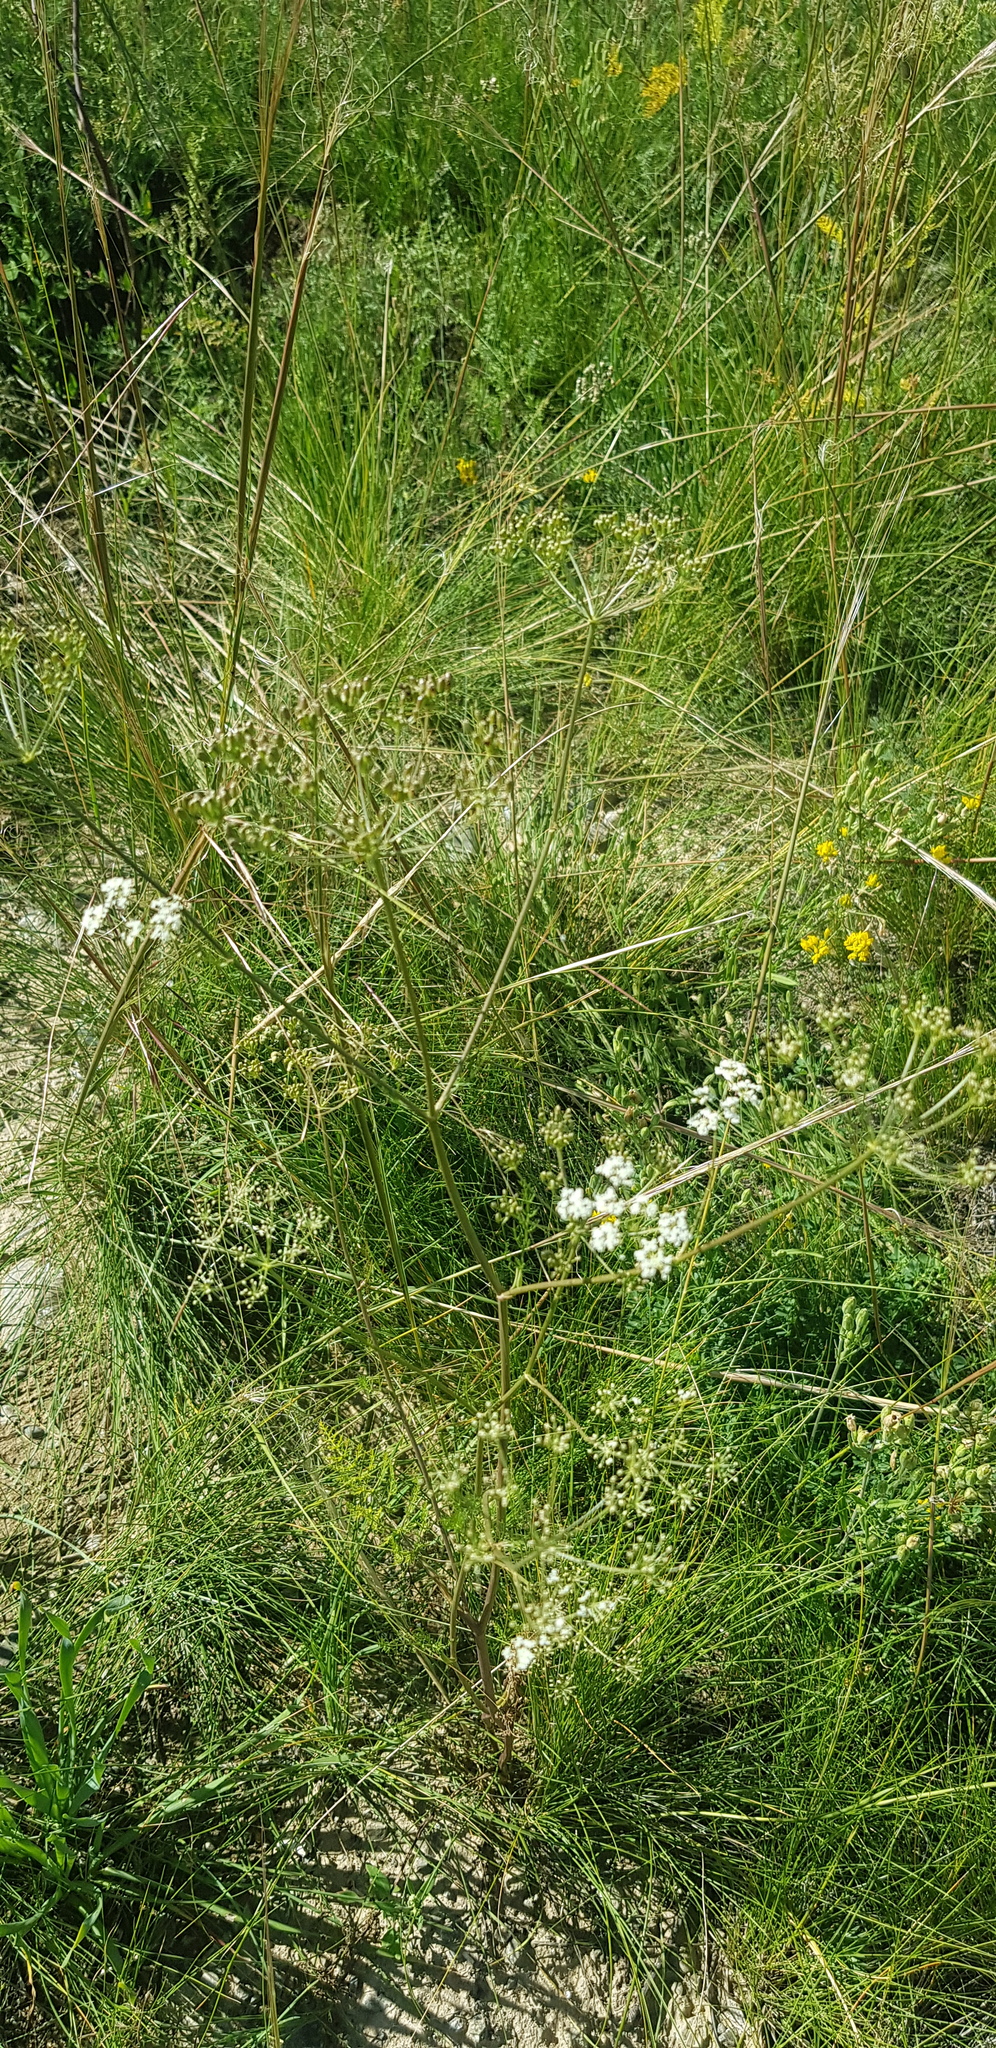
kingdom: Plantae
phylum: Tracheophyta
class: Magnoliopsida
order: Apiales
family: Apiaceae
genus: Carum
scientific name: Carum buriaticum
